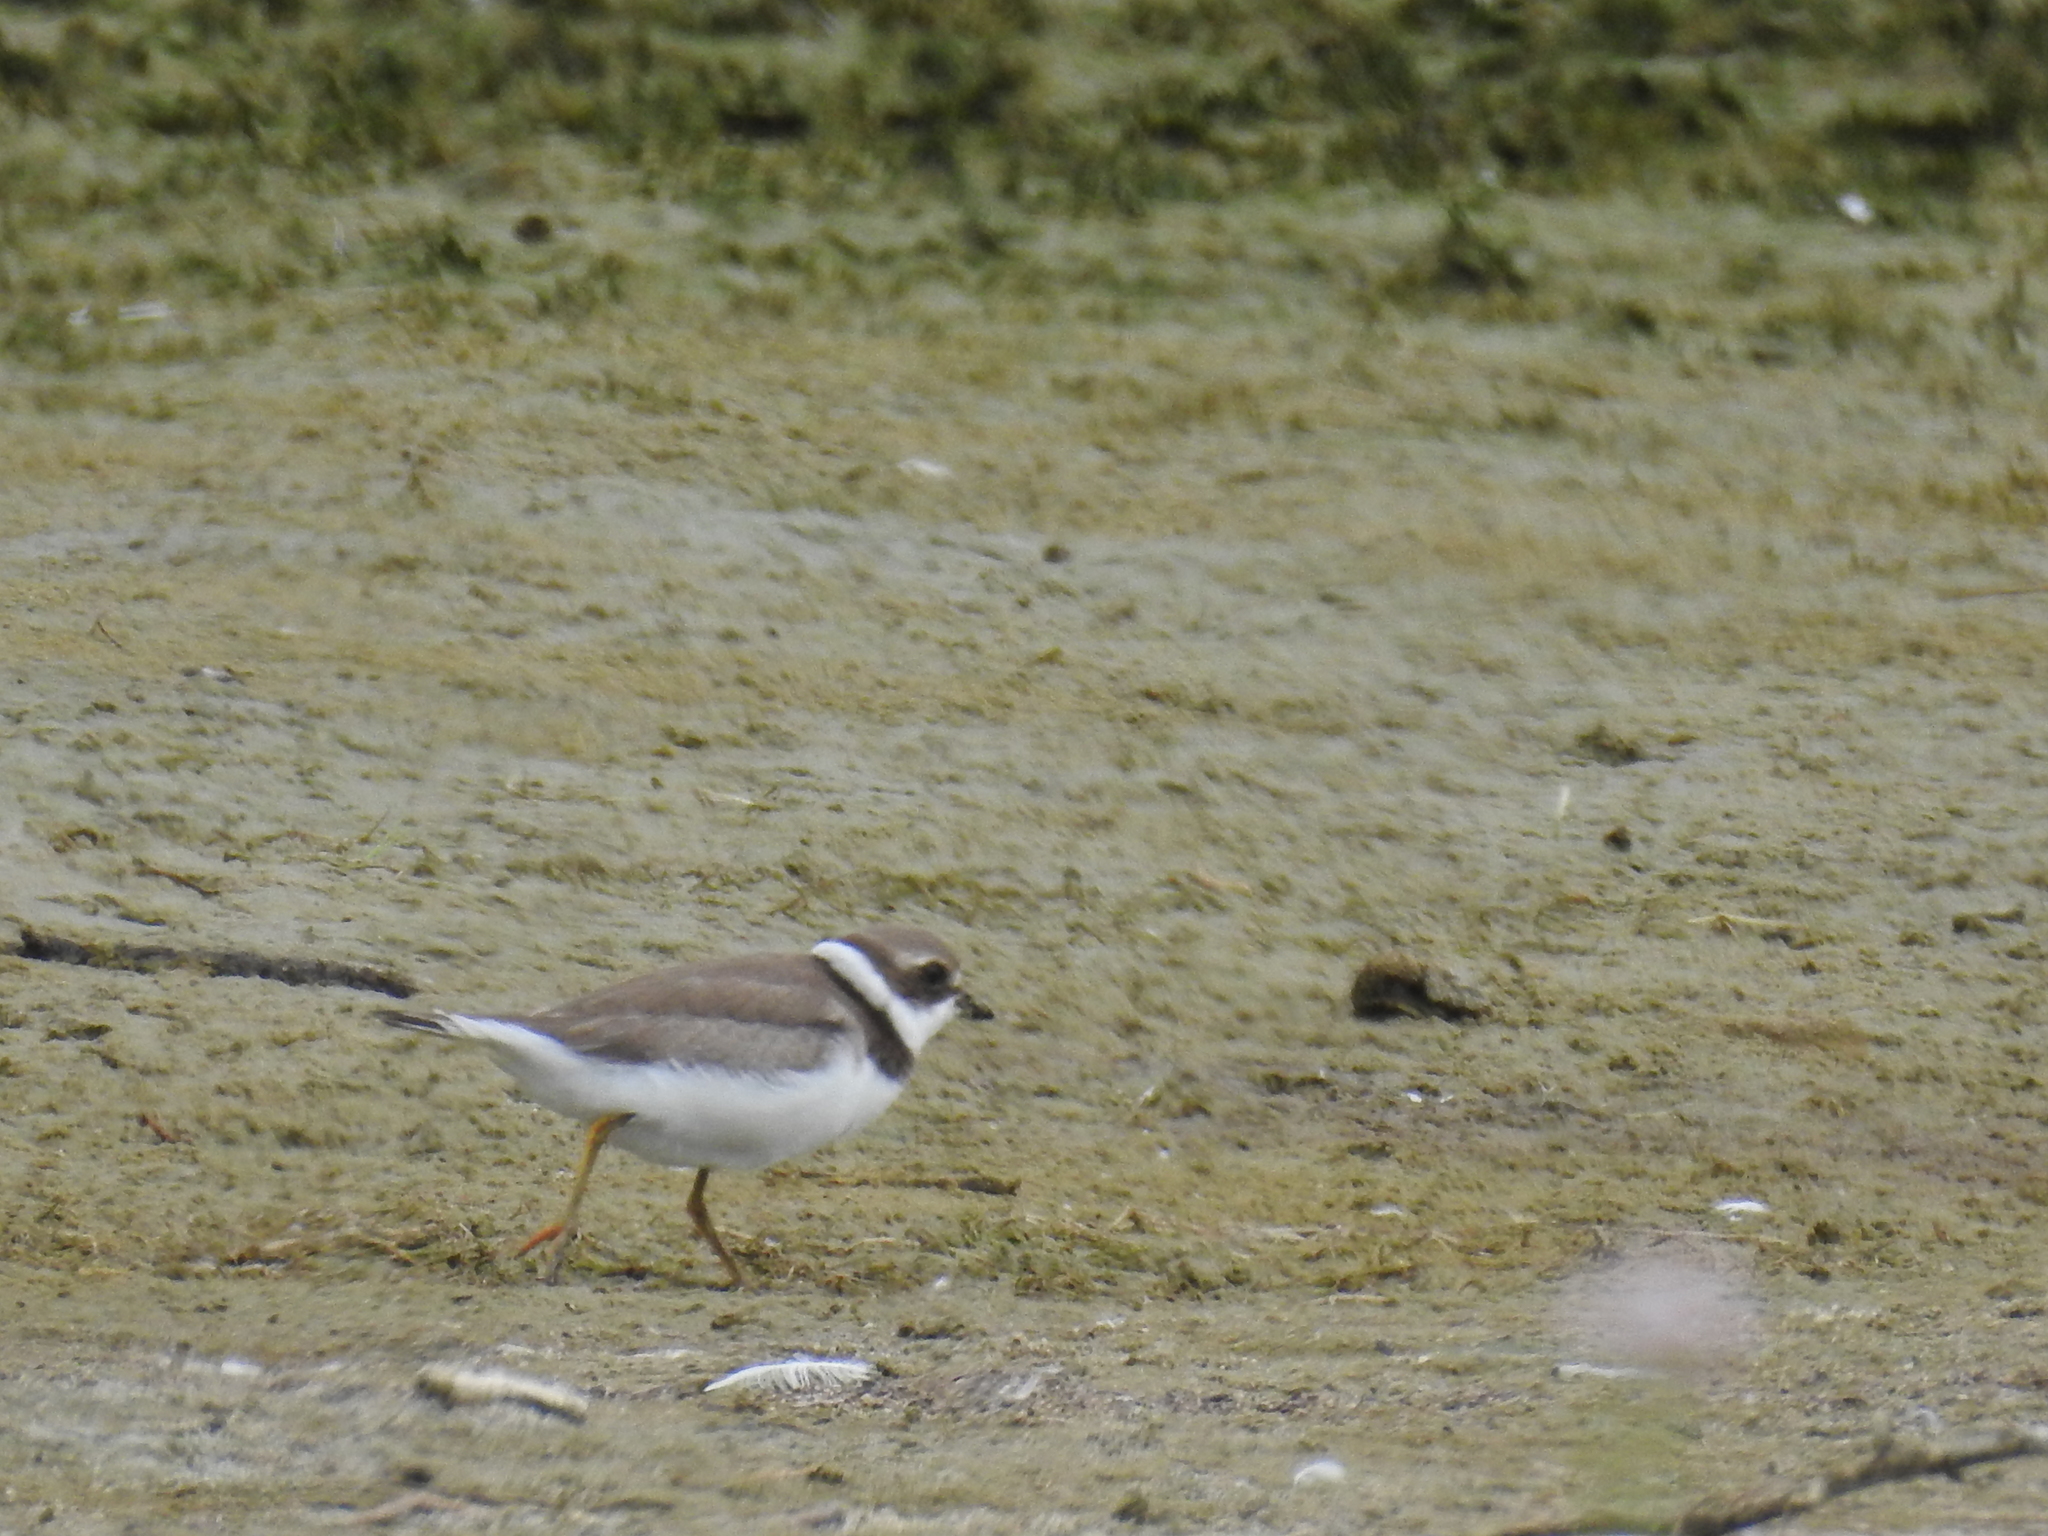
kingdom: Animalia
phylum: Chordata
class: Aves
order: Charadriiformes
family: Charadriidae
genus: Charadrius
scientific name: Charadrius semipalmatus
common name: Semipalmated plover
